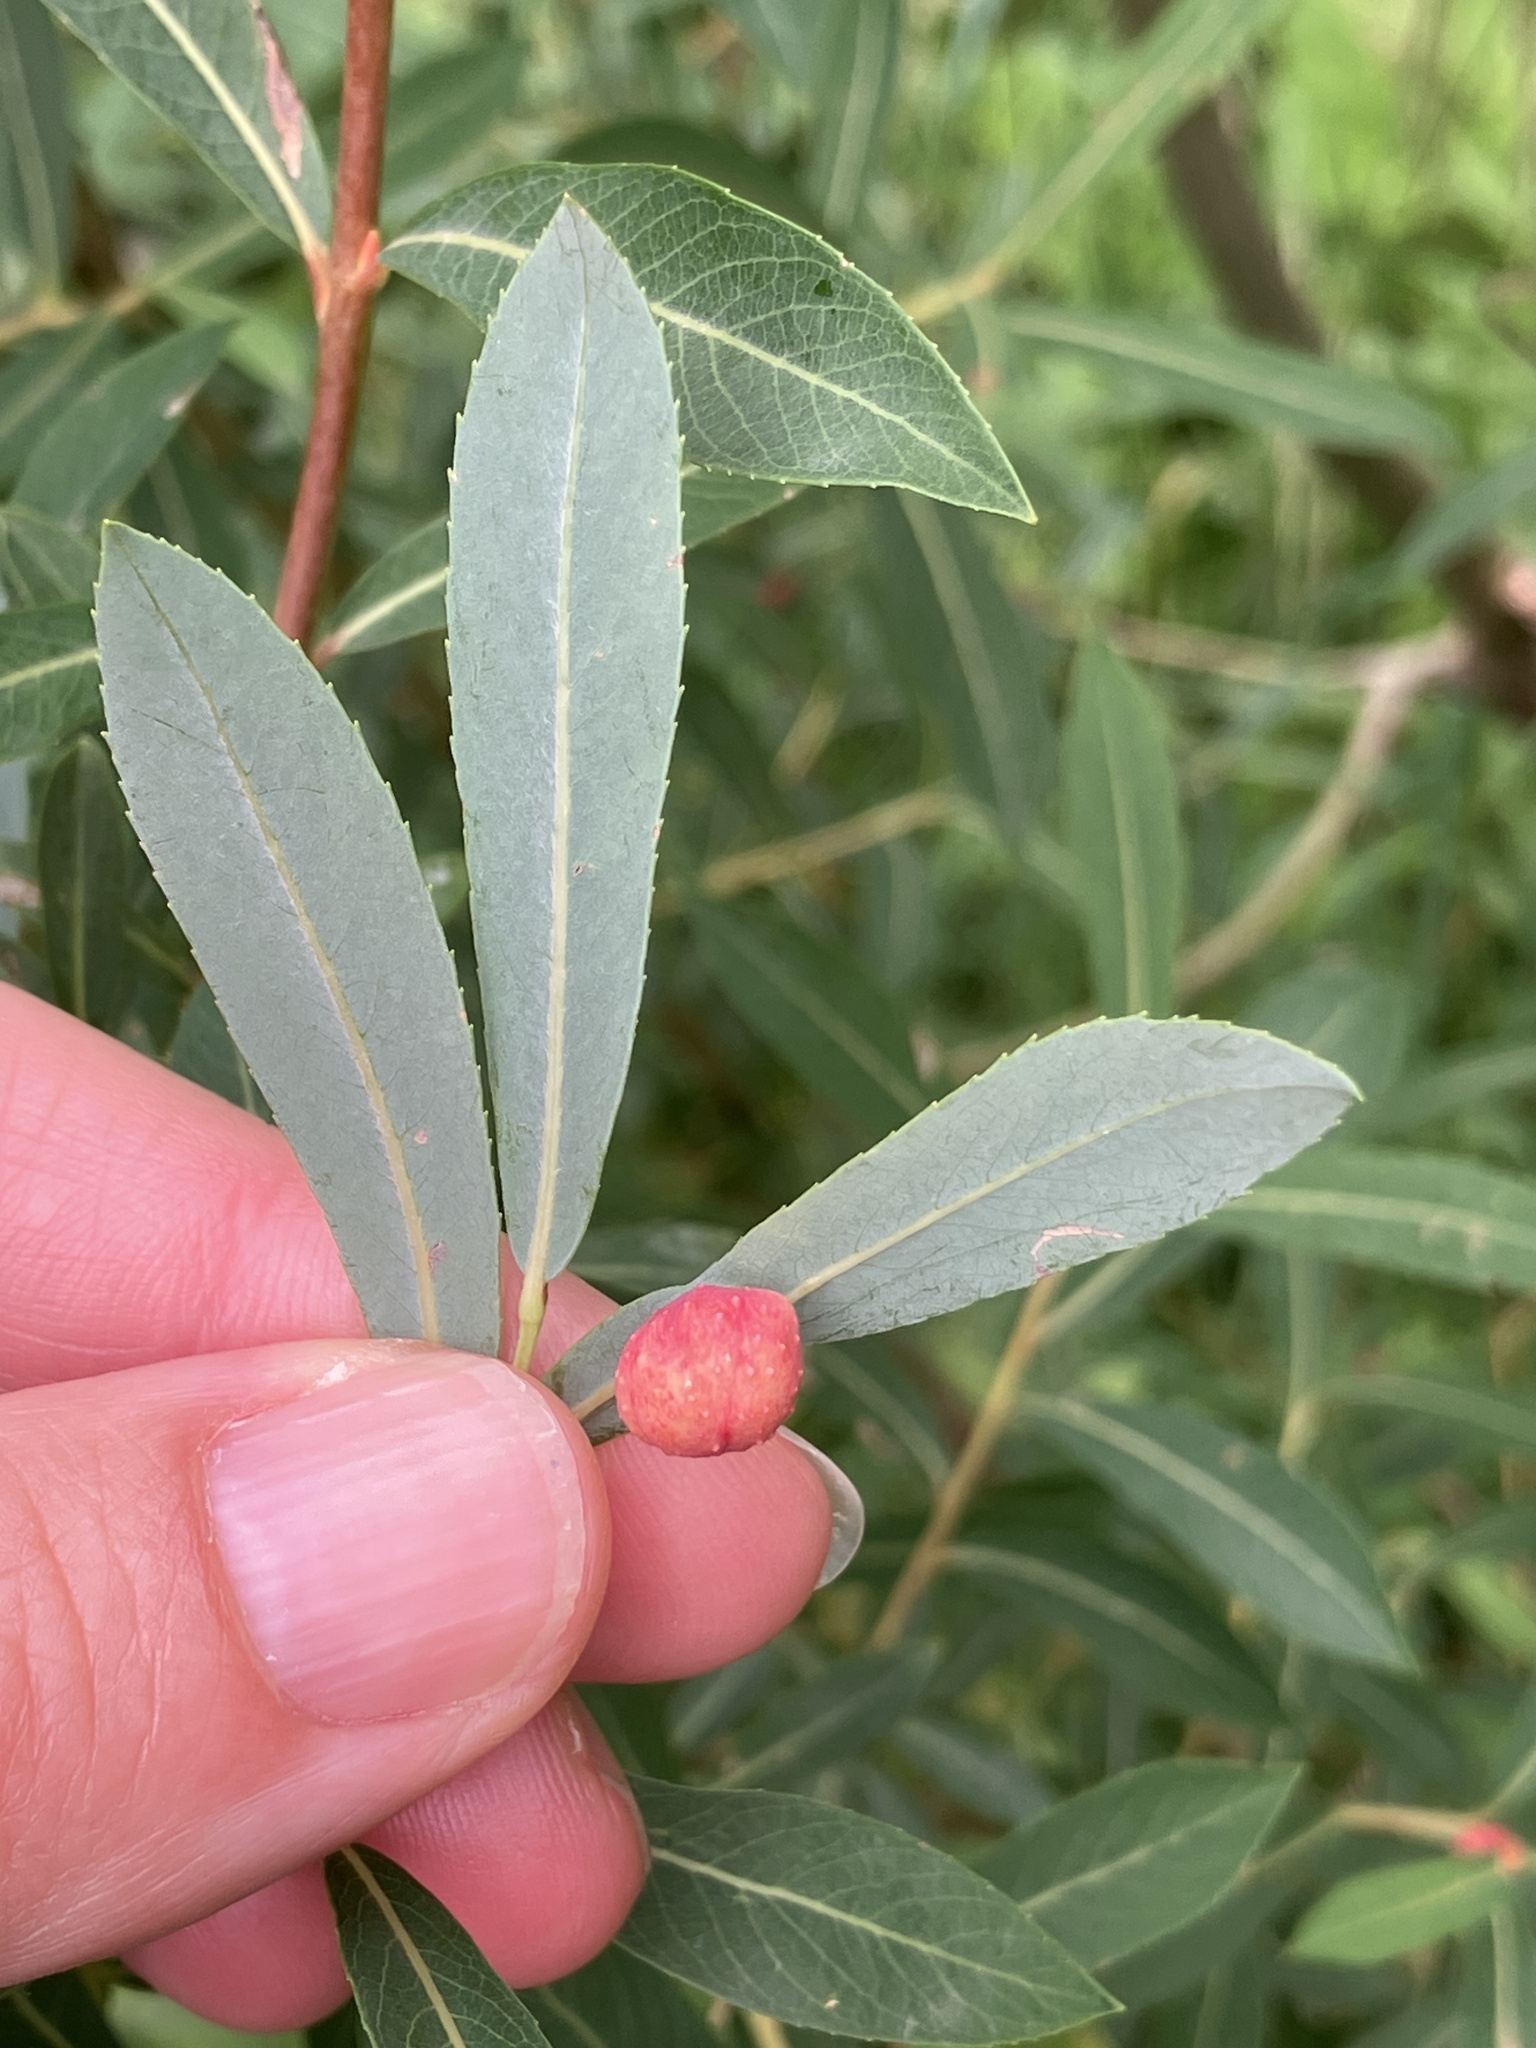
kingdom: Animalia
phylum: Arthropoda
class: Insecta
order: Hymenoptera
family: Tenthredinidae
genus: Euura
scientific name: Euura viminalis
